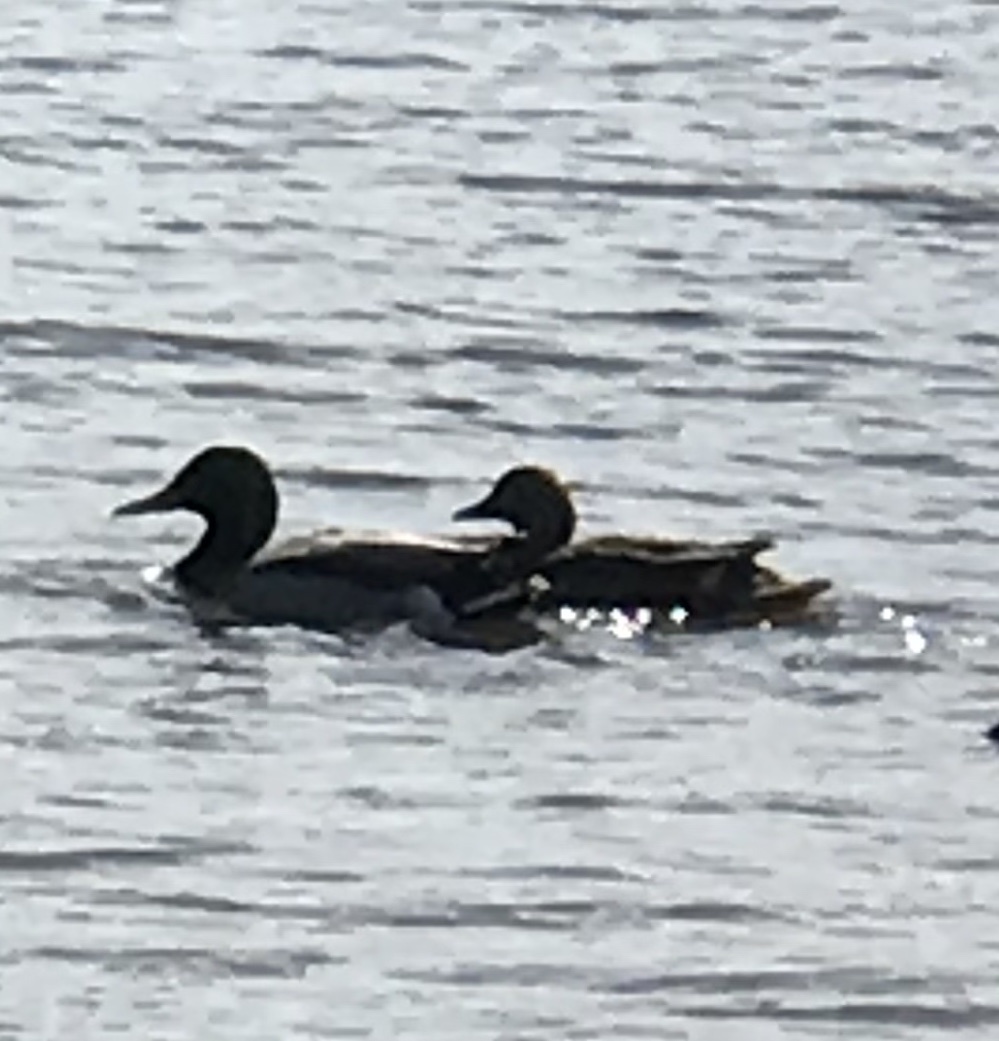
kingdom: Animalia
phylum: Chordata
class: Aves
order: Anseriformes
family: Anatidae
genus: Anas
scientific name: Anas platyrhynchos
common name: Mallard
